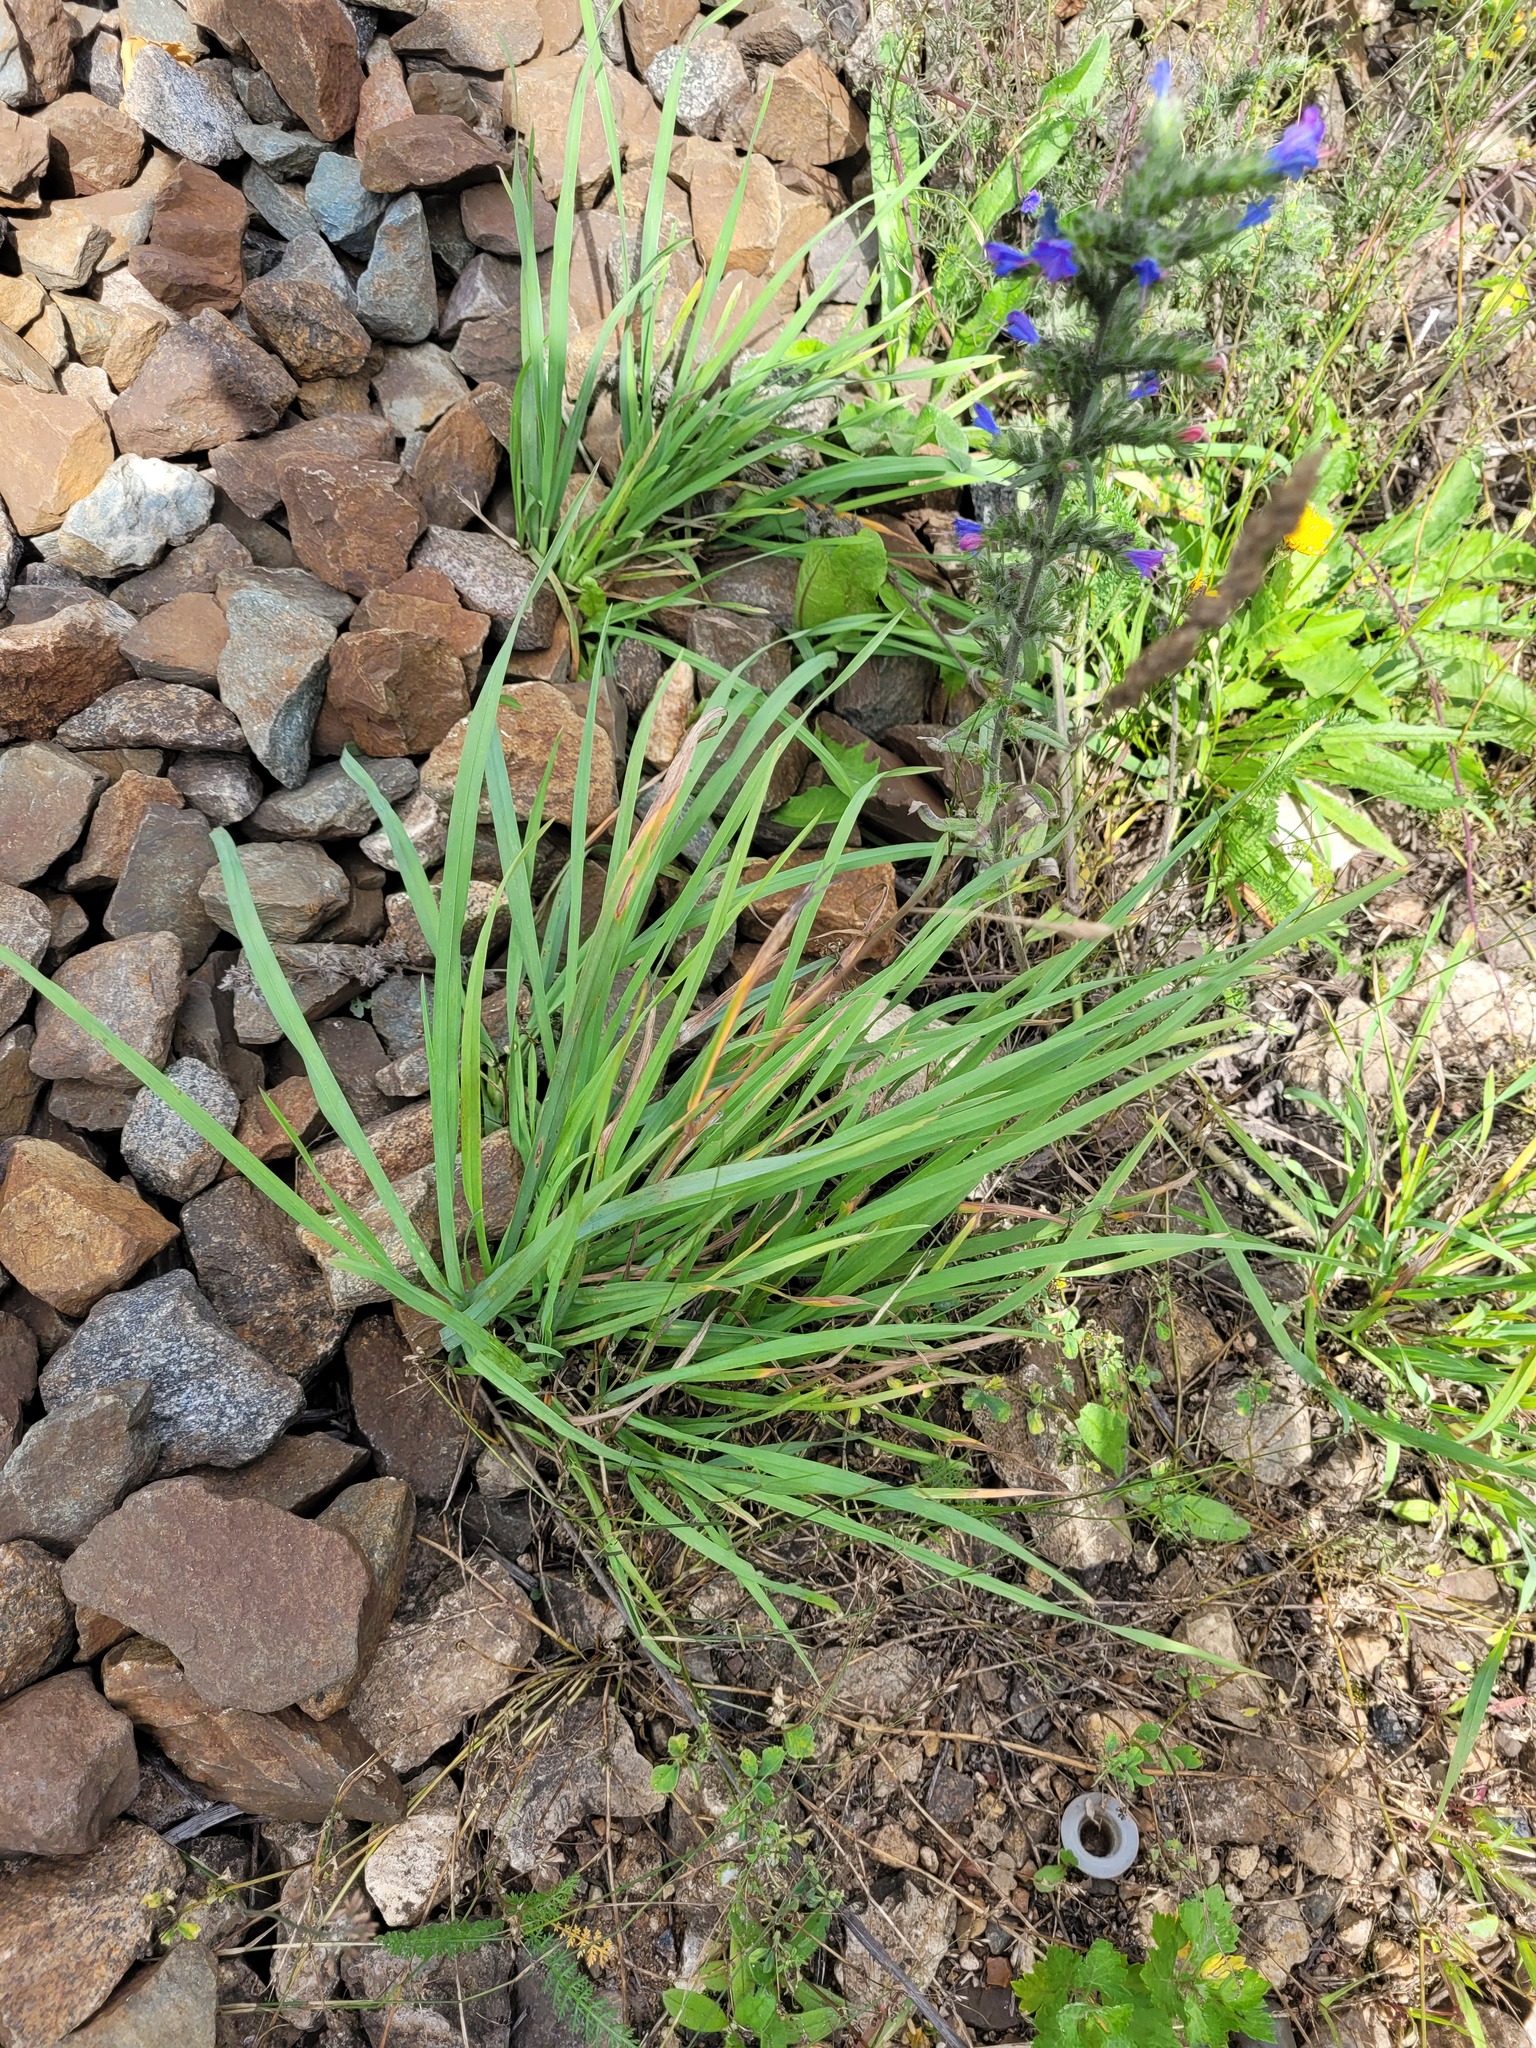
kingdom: Plantae
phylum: Tracheophyta
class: Liliopsida
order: Poales
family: Poaceae
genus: Dactylis
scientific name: Dactylis glomerata
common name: Orchardgrass
